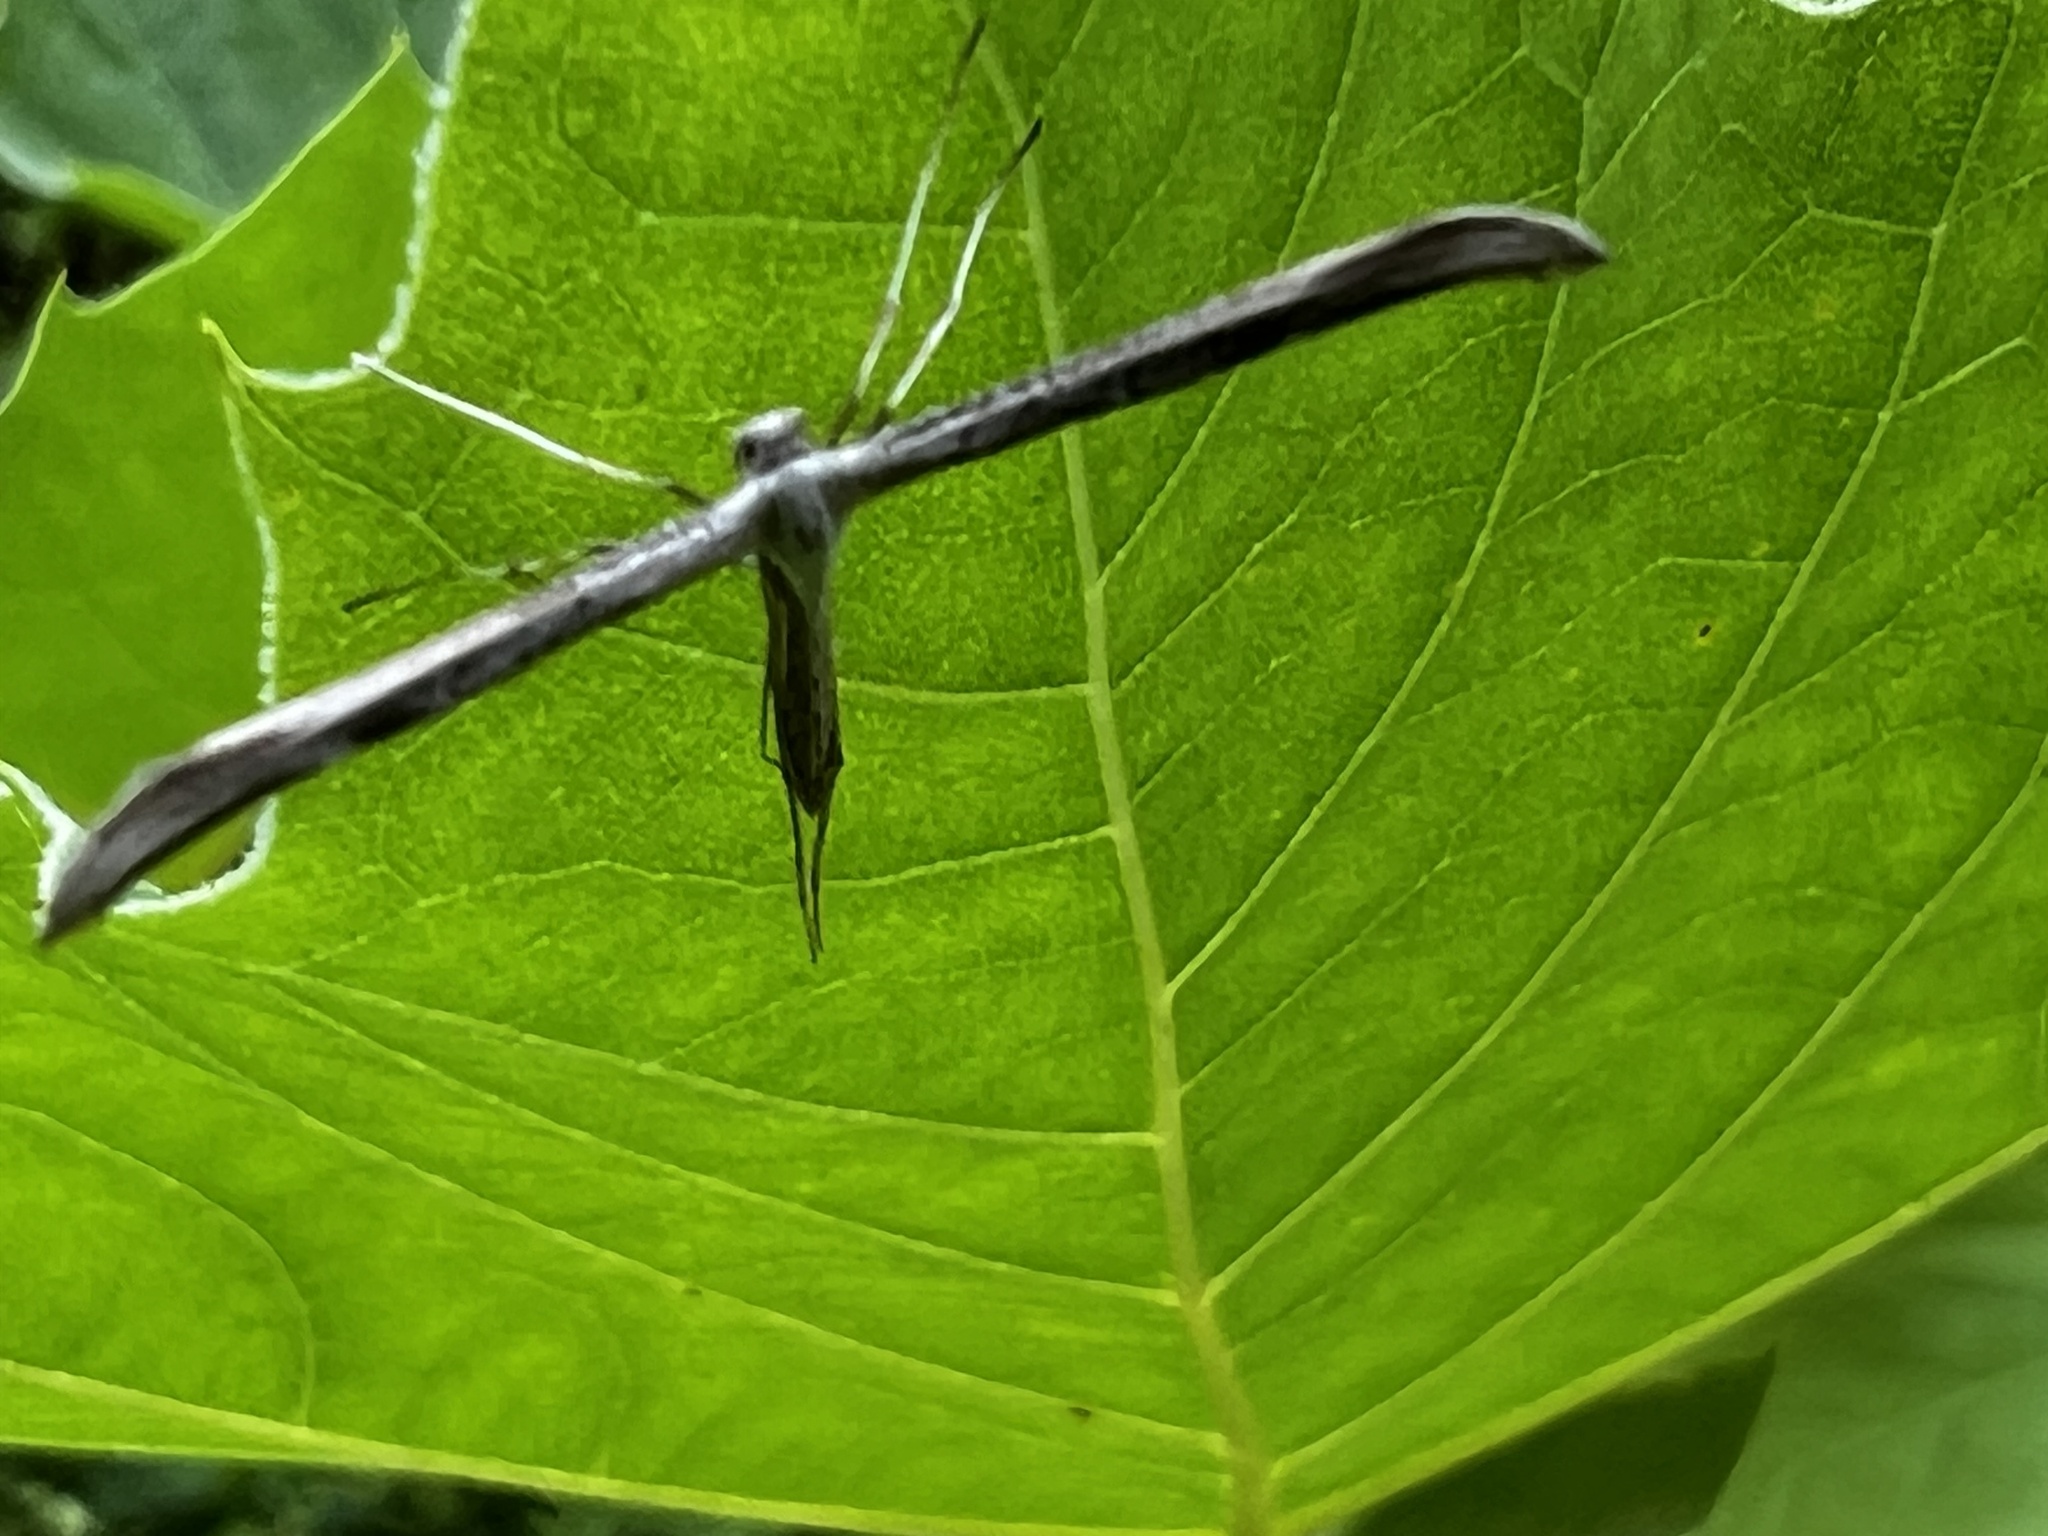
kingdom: Animalia
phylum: Arthropoda
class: Insecta
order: Lepidoptera
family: Pterophoridae
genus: Emmelina
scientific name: Emmelina monodactyla
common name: Common plume
